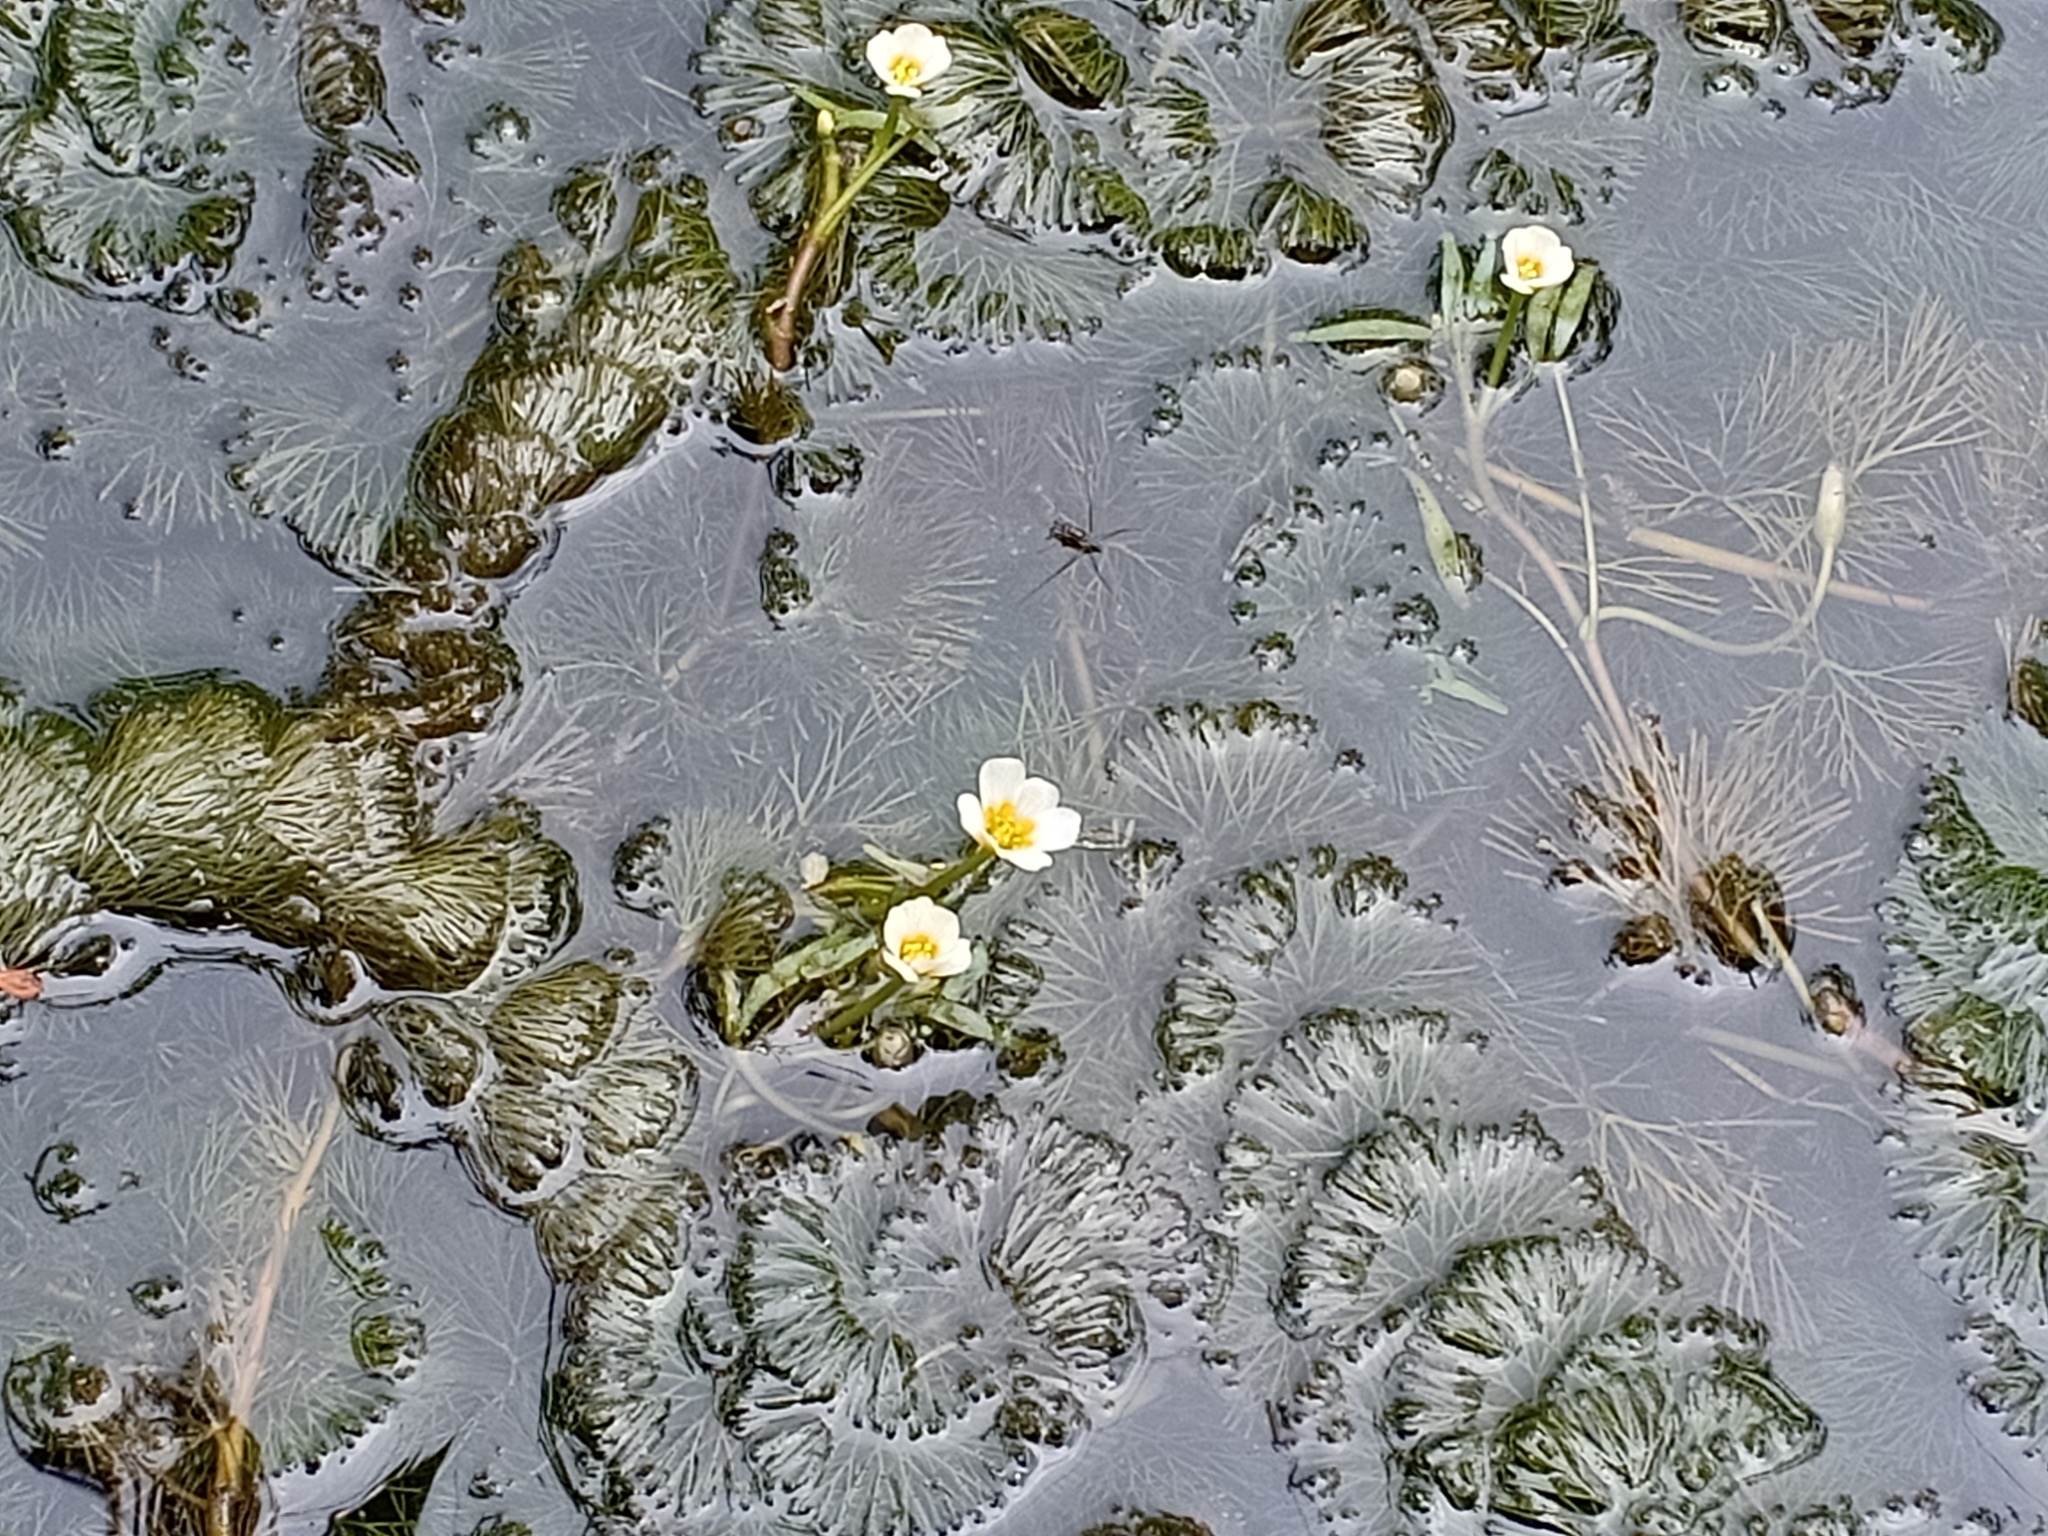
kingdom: Plantae
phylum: Tracheophyta
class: Magnoliopsida
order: Nymphaeales
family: Cabombaceae
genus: Cabomba
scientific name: Cabomba caroliniana
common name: Fanwort
